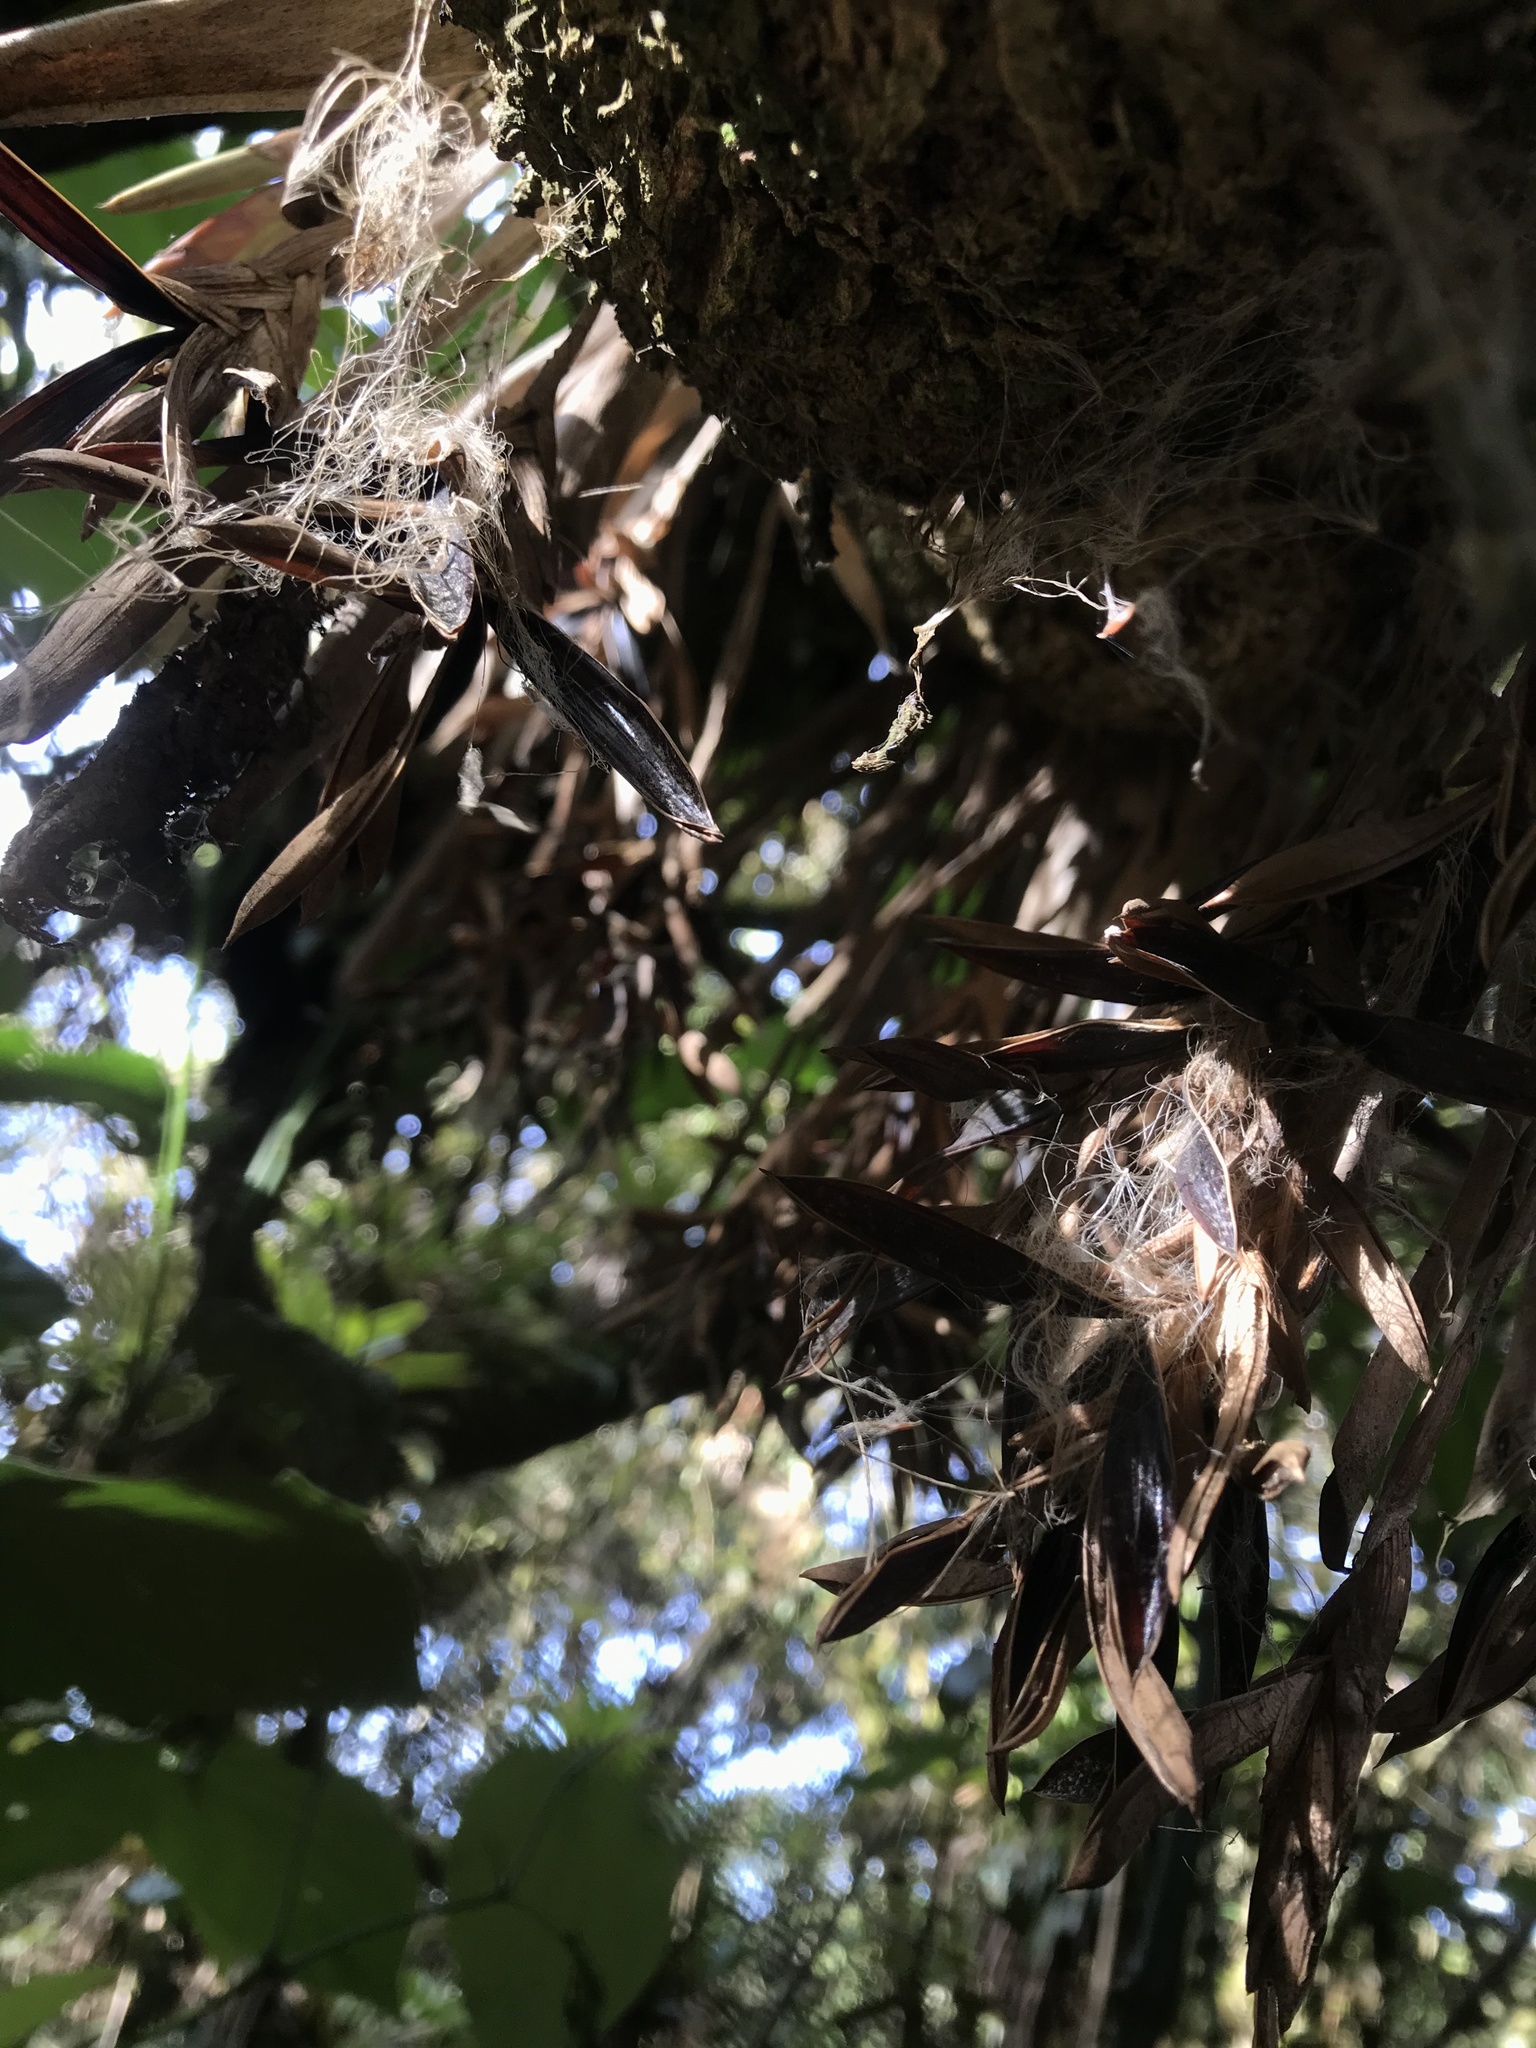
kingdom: Plantae
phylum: Tracheophyta
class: Liliopsida
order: Poales
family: Bromeliaceae
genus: Tillandsia
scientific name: Tillandsia complanata
